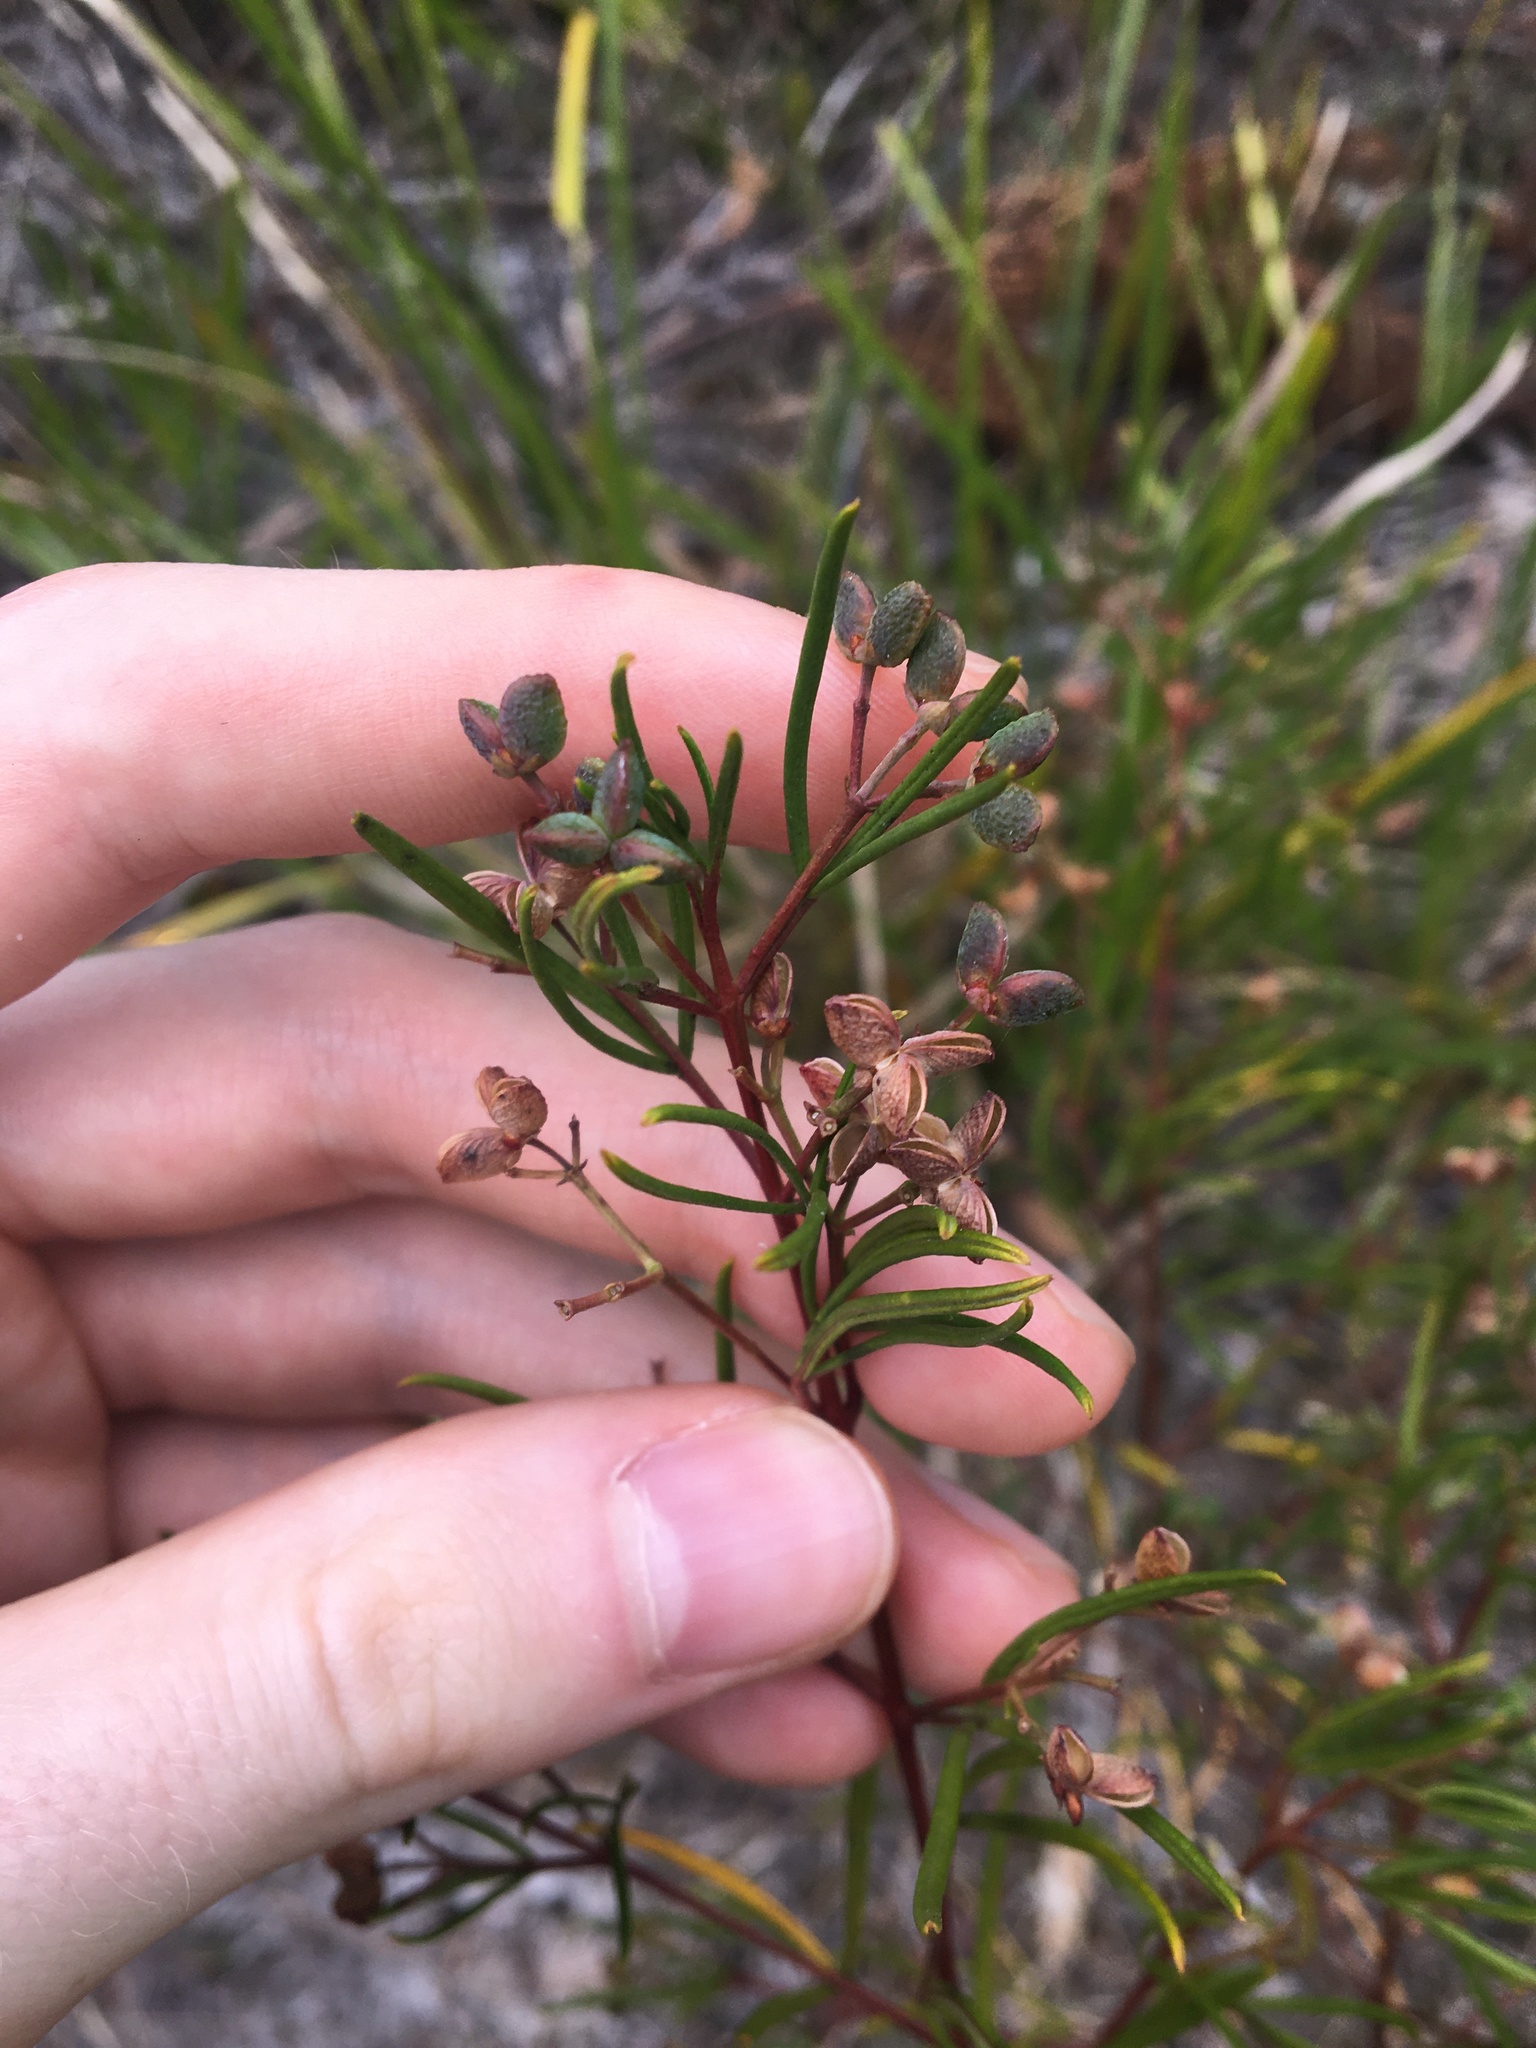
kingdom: Plantae
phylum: Tracheophyta
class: Magnoliopsida
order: Sapindales
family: Rutaceae
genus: Zieria
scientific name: Zieria laxiflora
